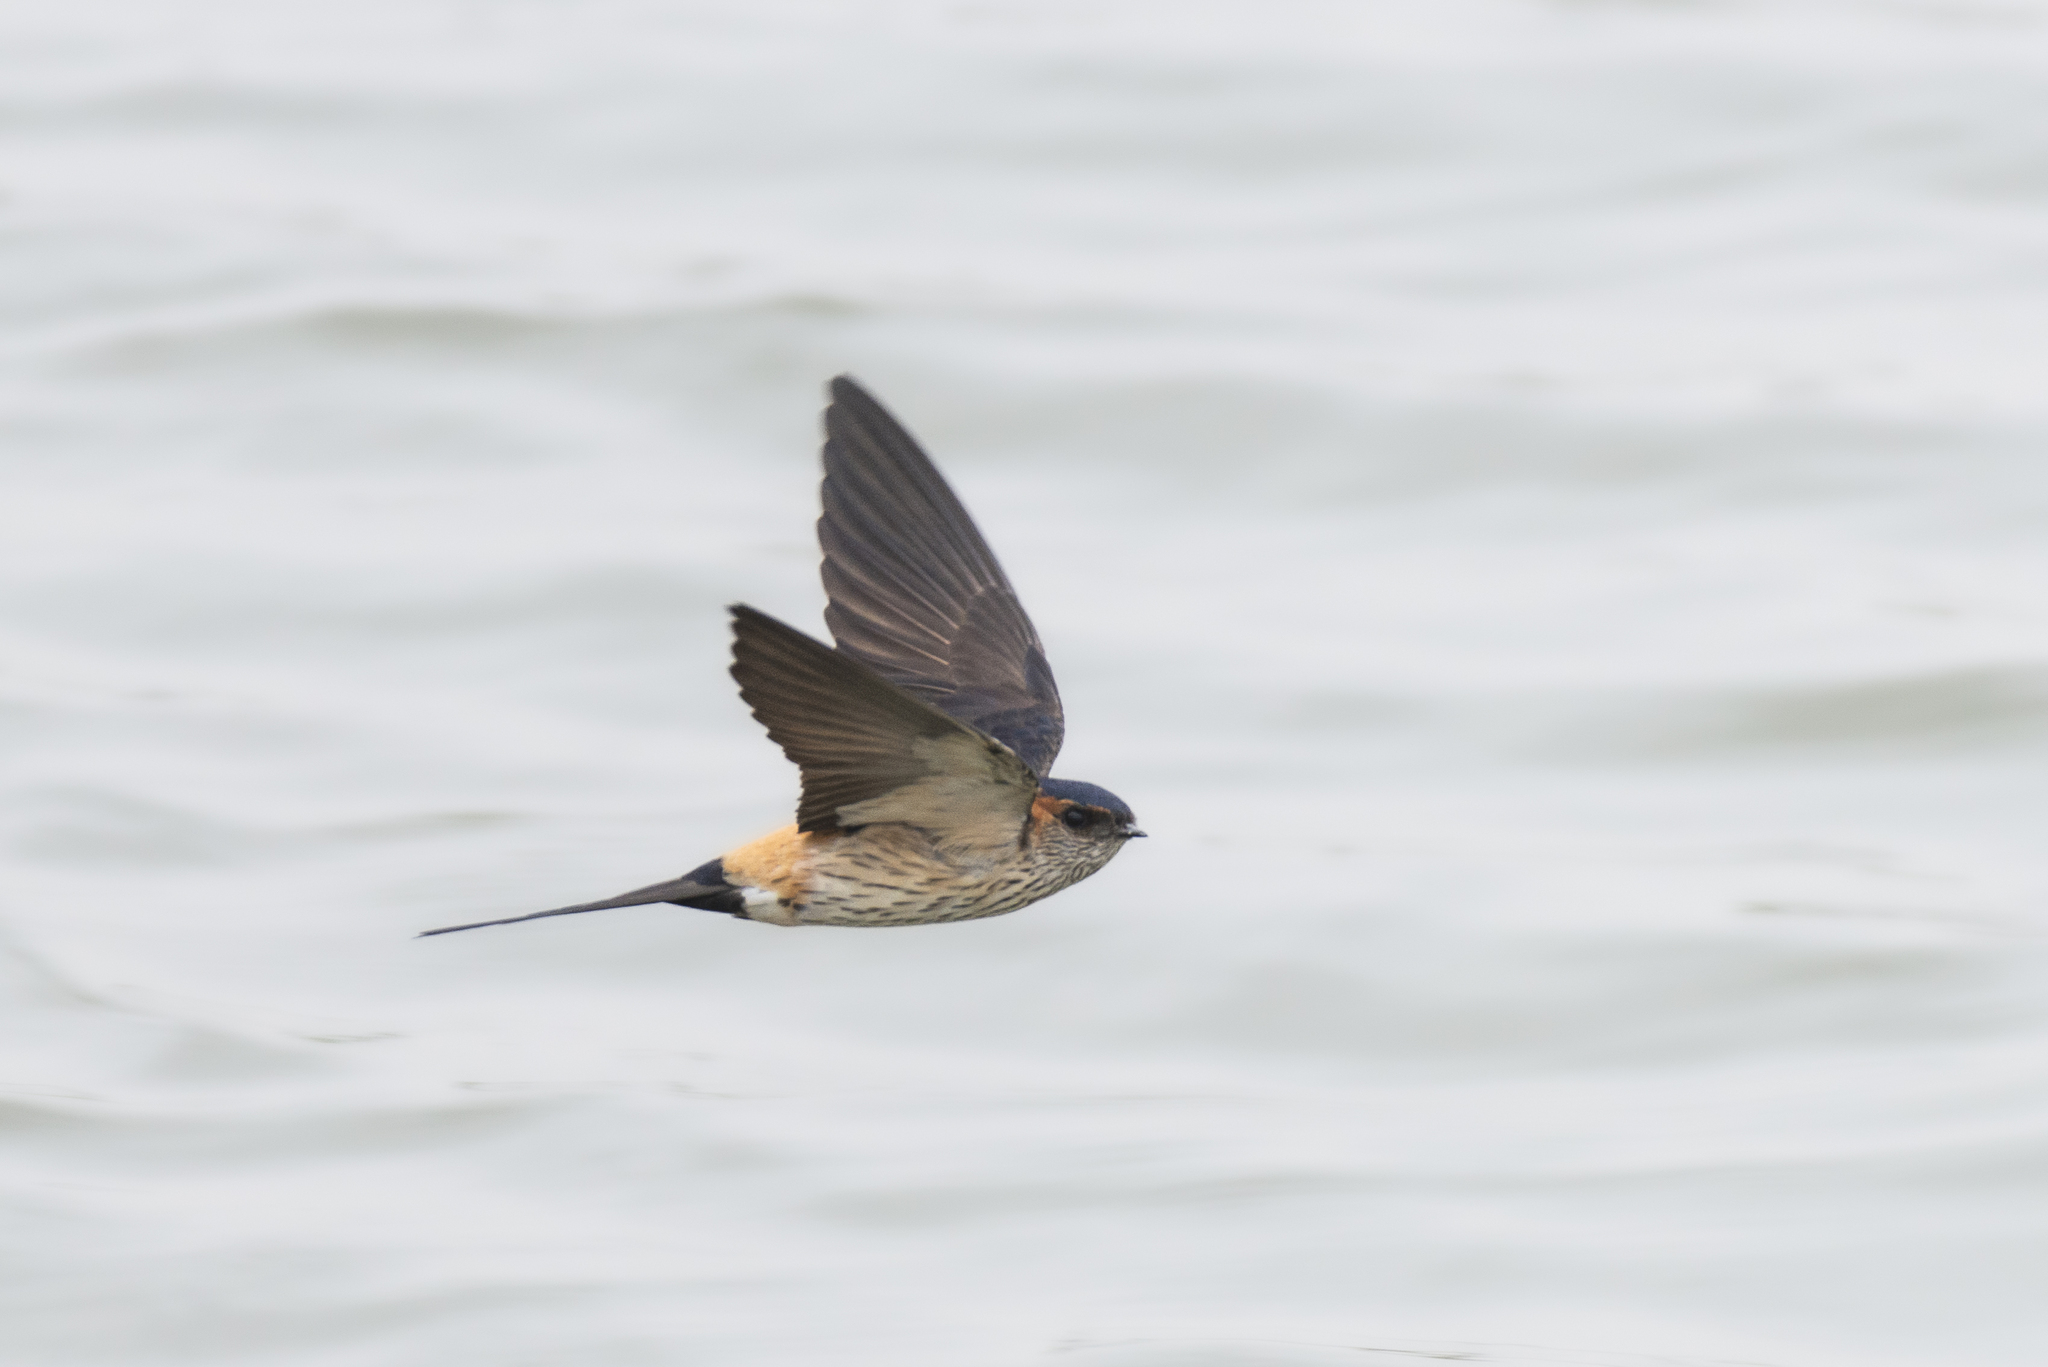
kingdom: Animalia
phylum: Chordata
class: Aves
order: Passeriformes
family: Hirundinidae
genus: Cecropis
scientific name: Cecropis daurica
